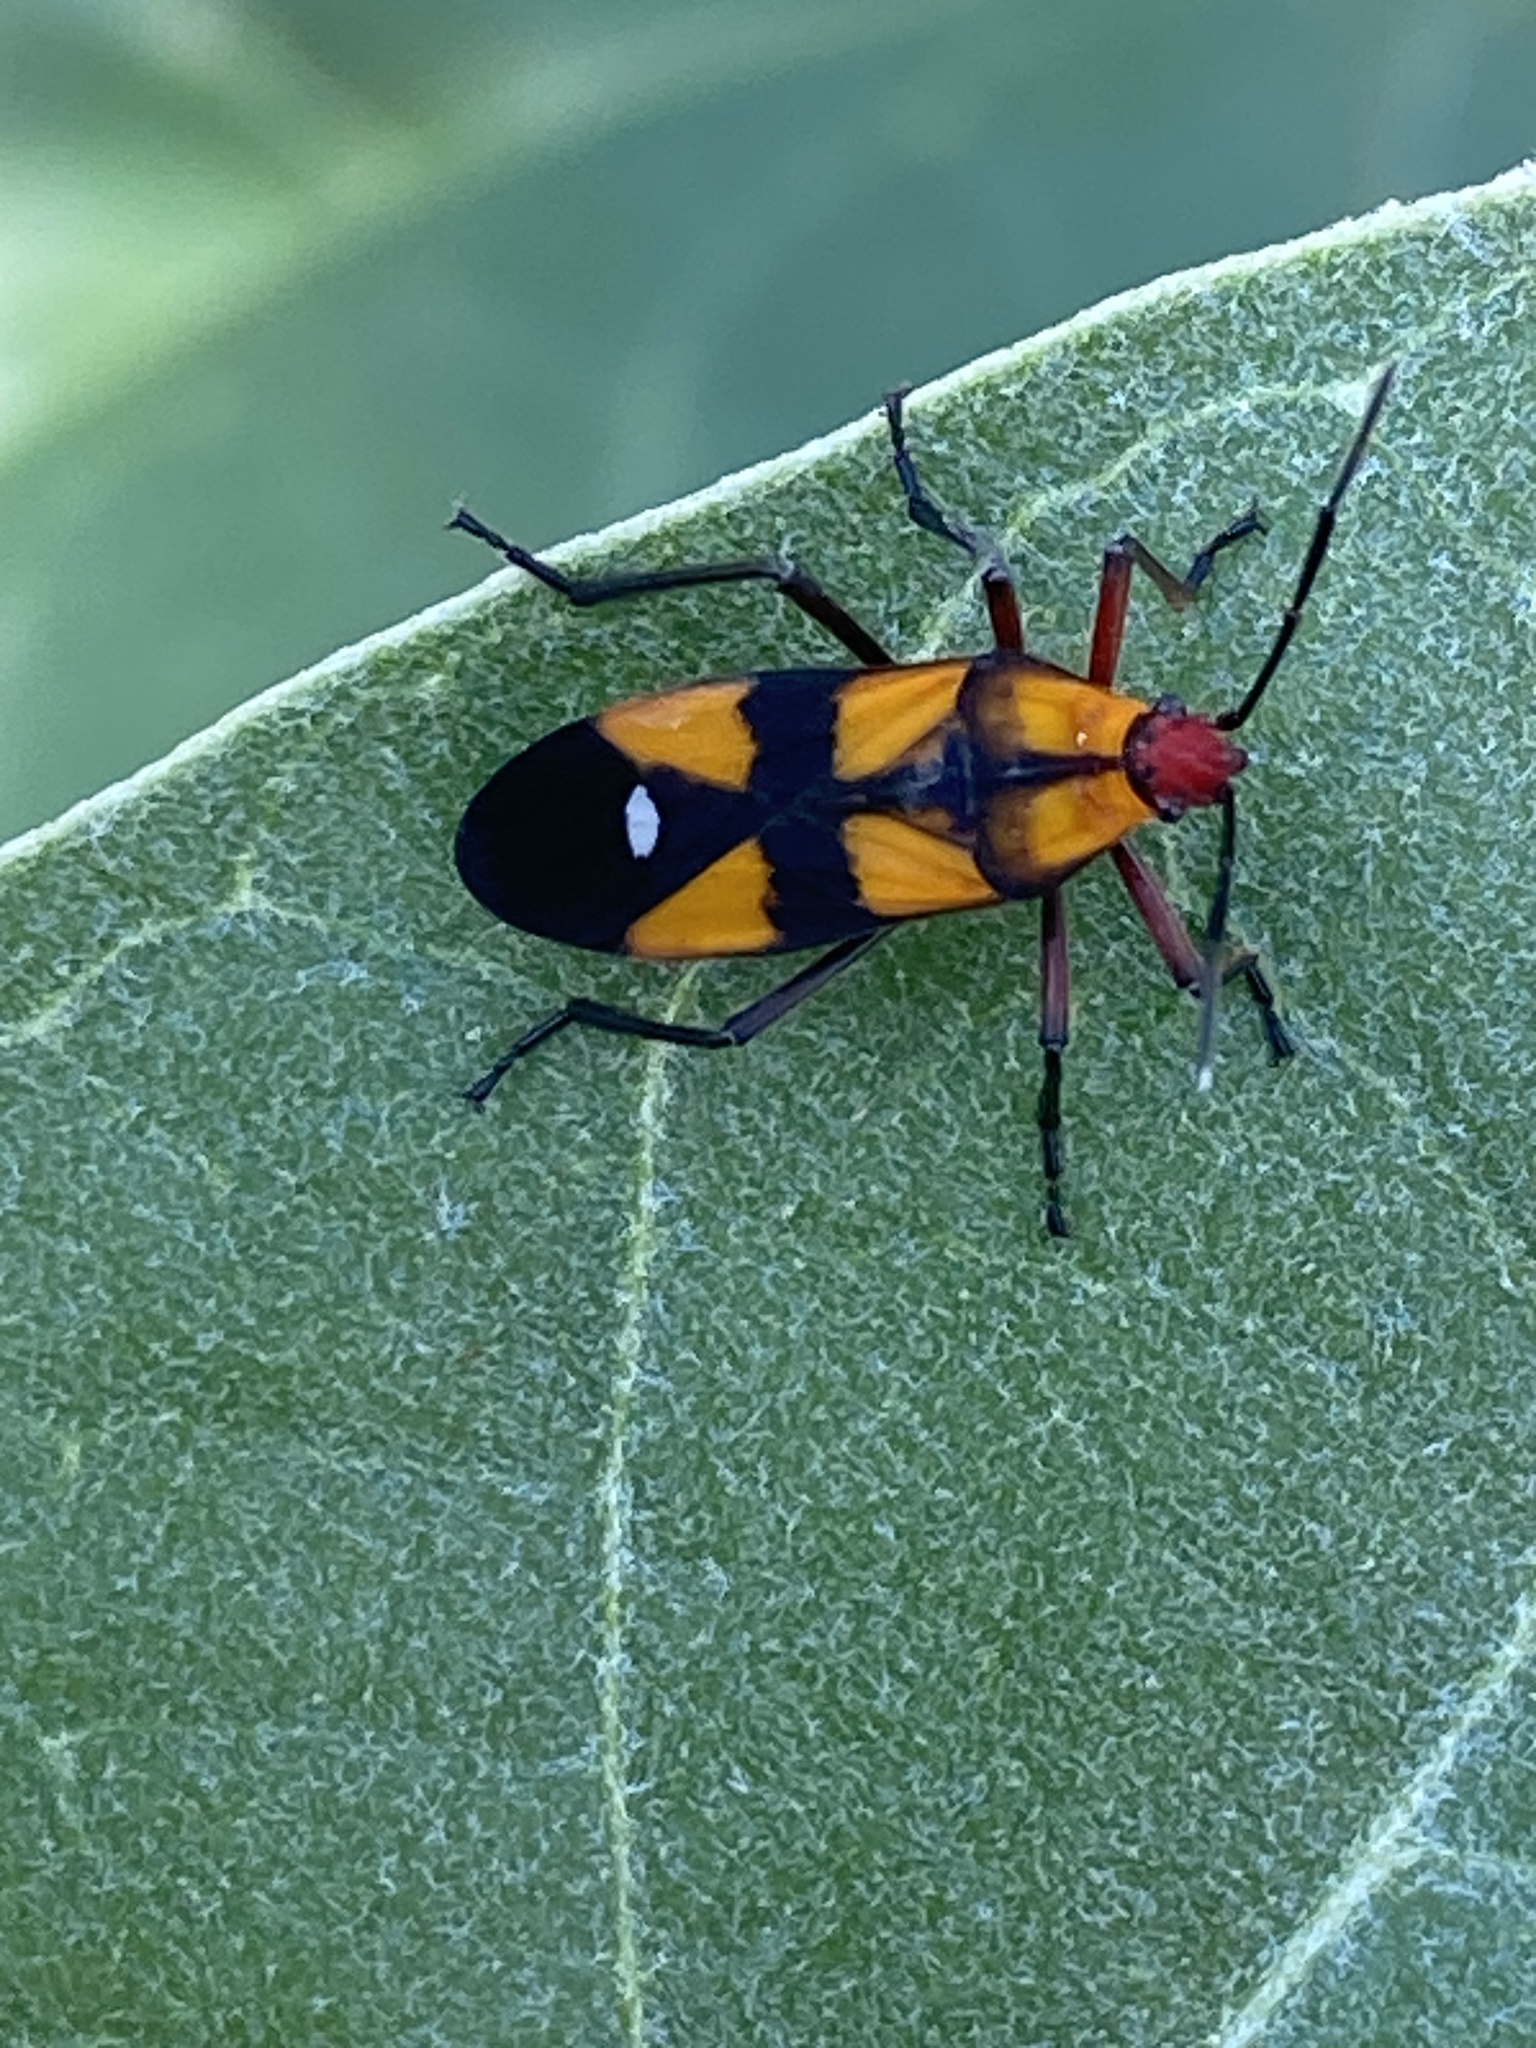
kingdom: Animalia
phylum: Arthropoda
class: Insecta
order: Hemiptera
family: Lygaeidae
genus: Oncopeltus
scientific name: Oncopeltus sexmaculatus
